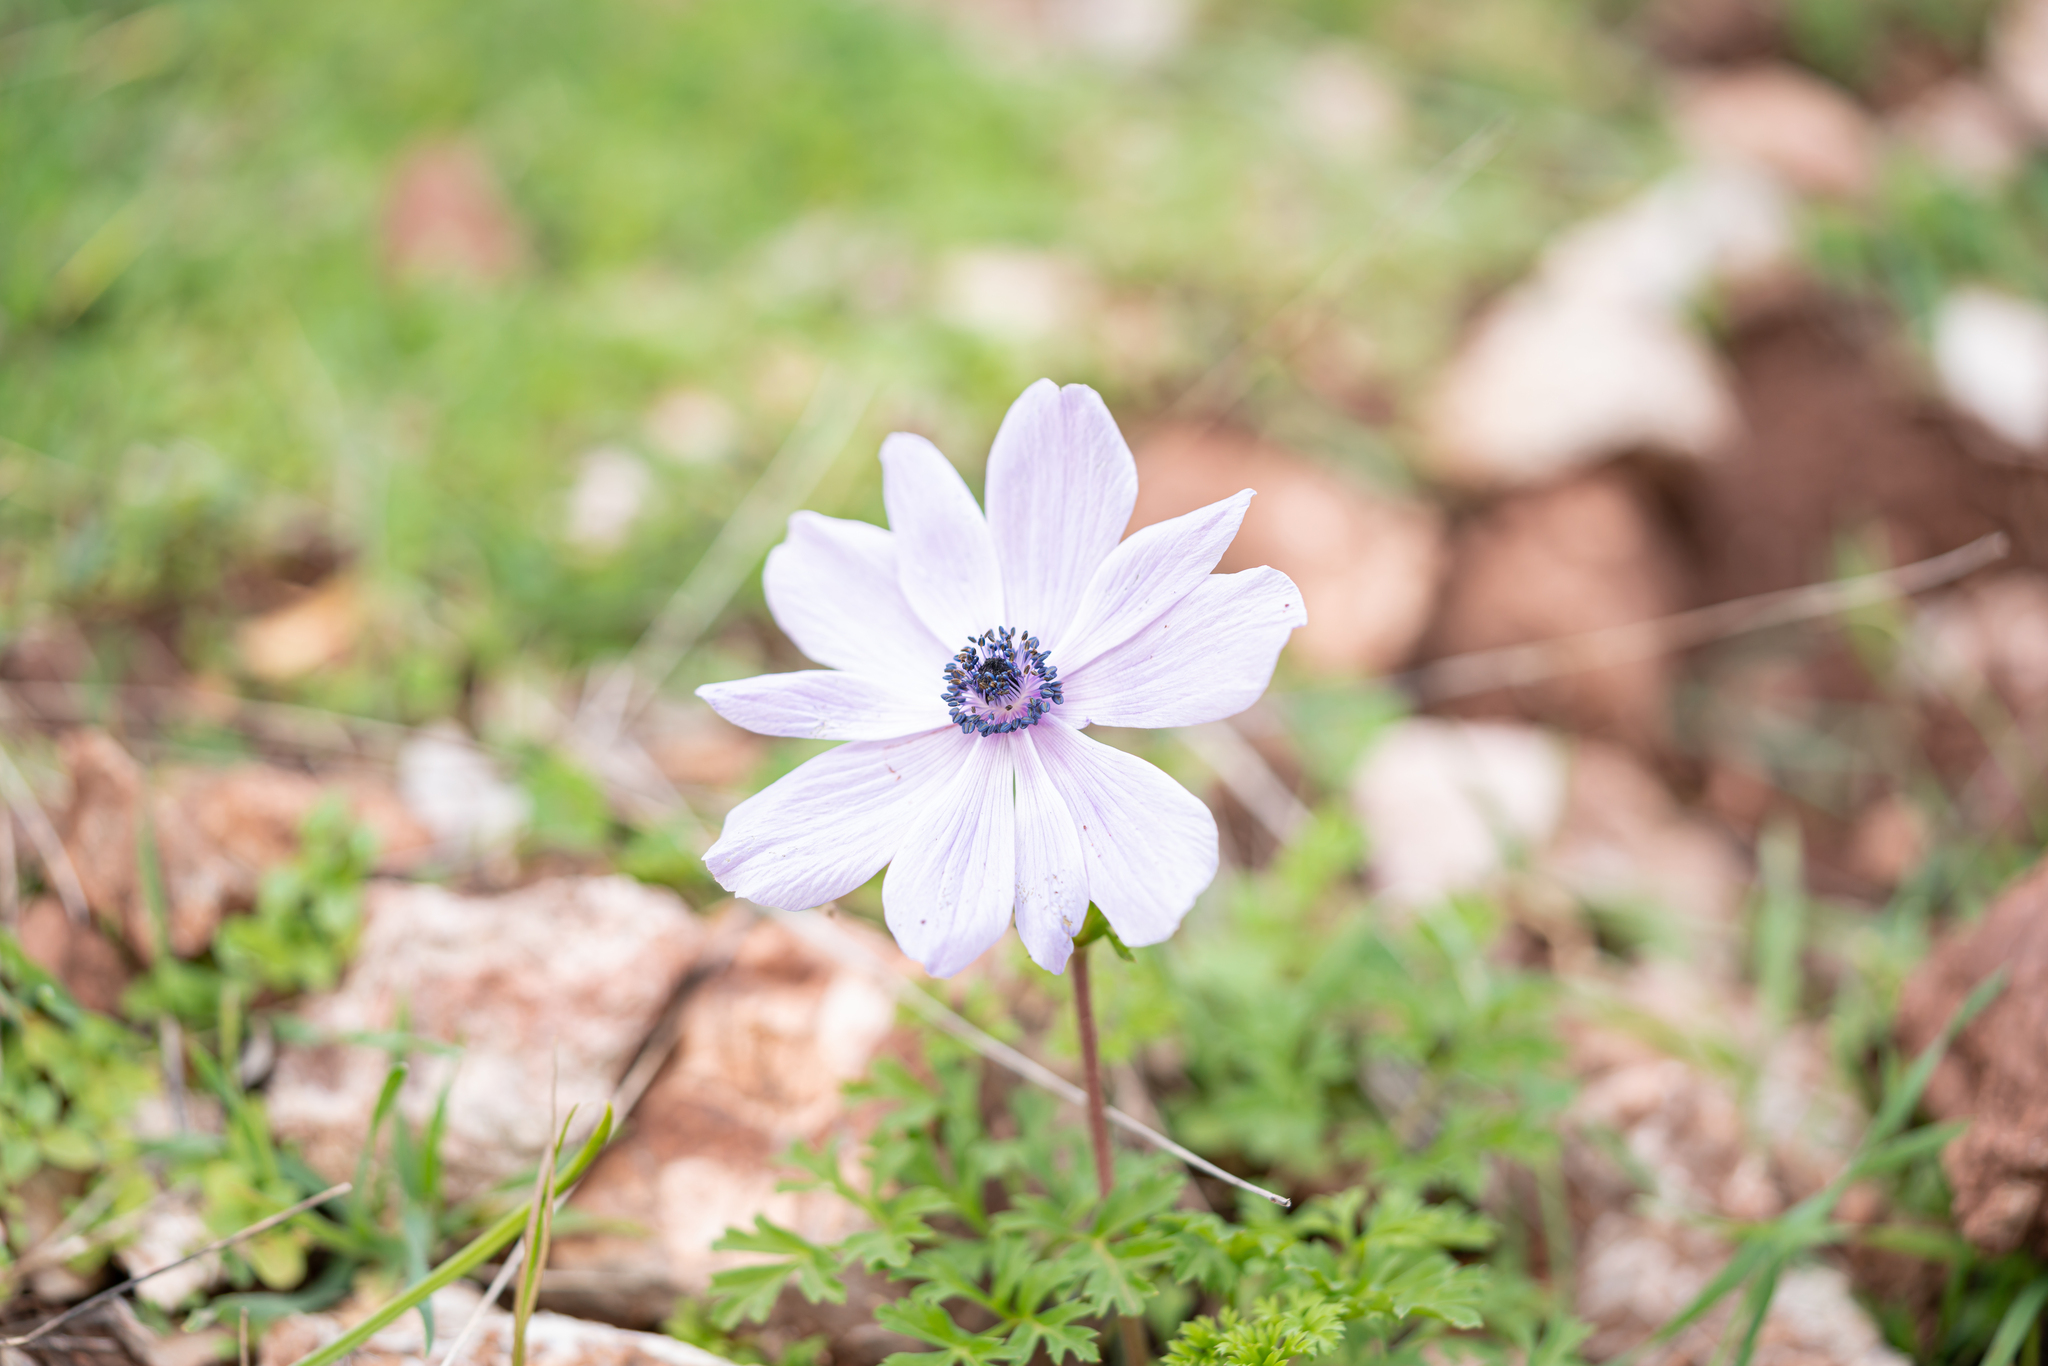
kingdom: Plantae
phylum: Tracheophyta
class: Magnoliopsida
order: Ranunculales
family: Ranunculaceae
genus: Anemone
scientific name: Anemone coronaria
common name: Poppy anemone
